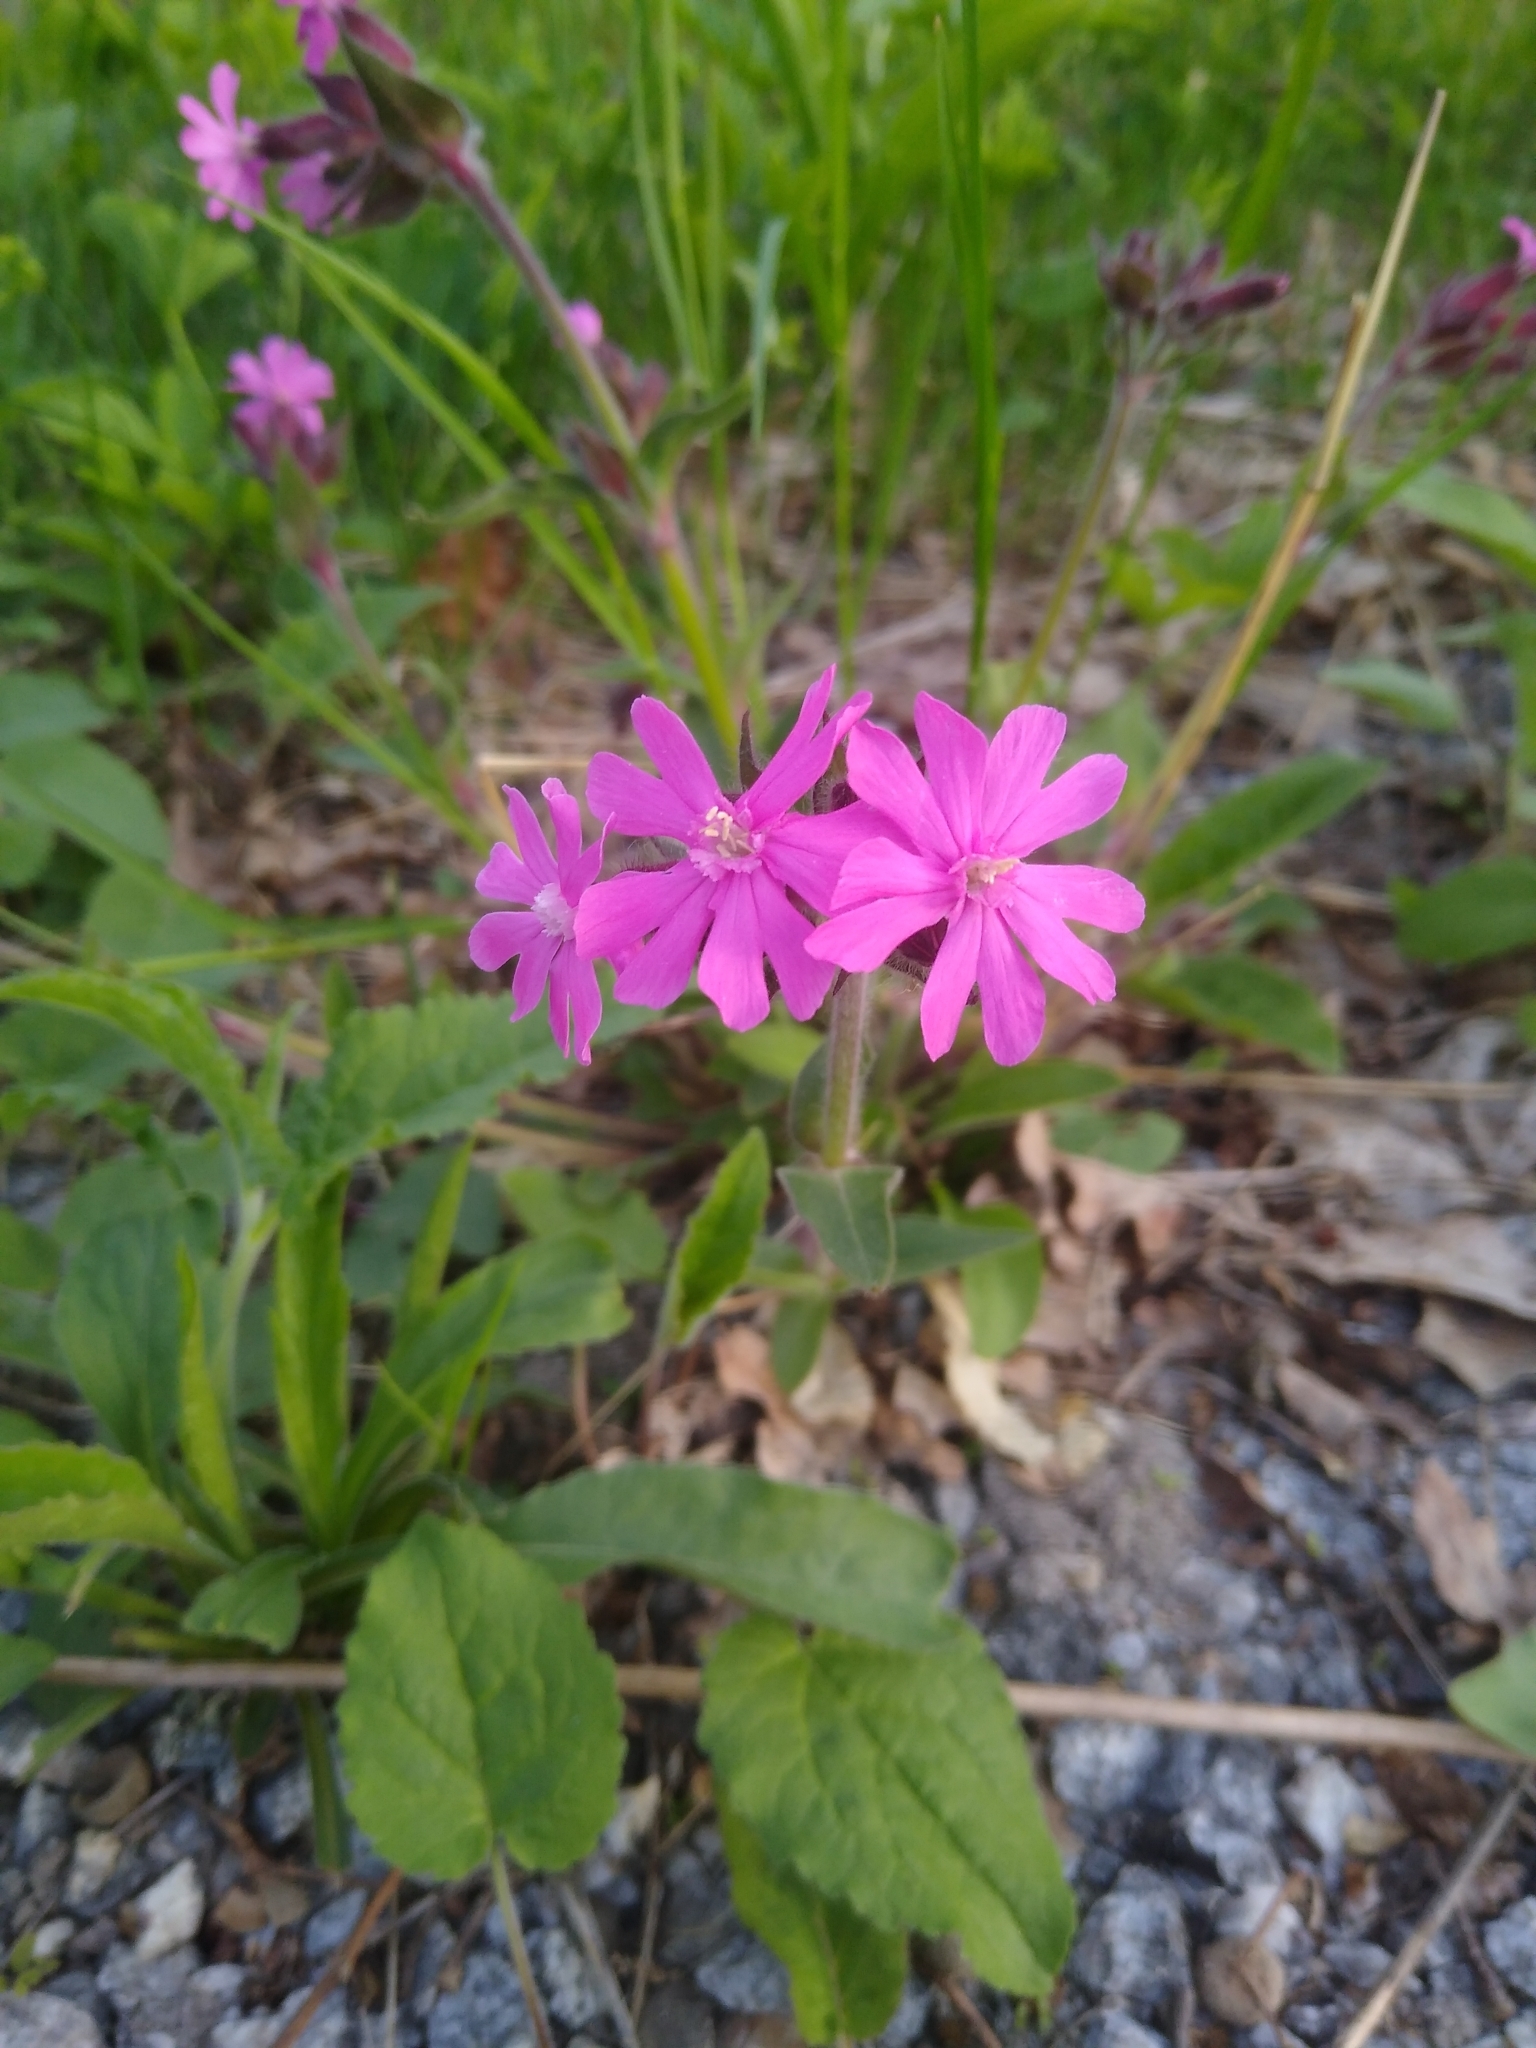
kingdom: Plantae
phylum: Tracheophyta
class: Magnoliopsida
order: Caryophyllales
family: Caryophyllaceae
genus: Silene
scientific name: Silene dioica
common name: Red campion
